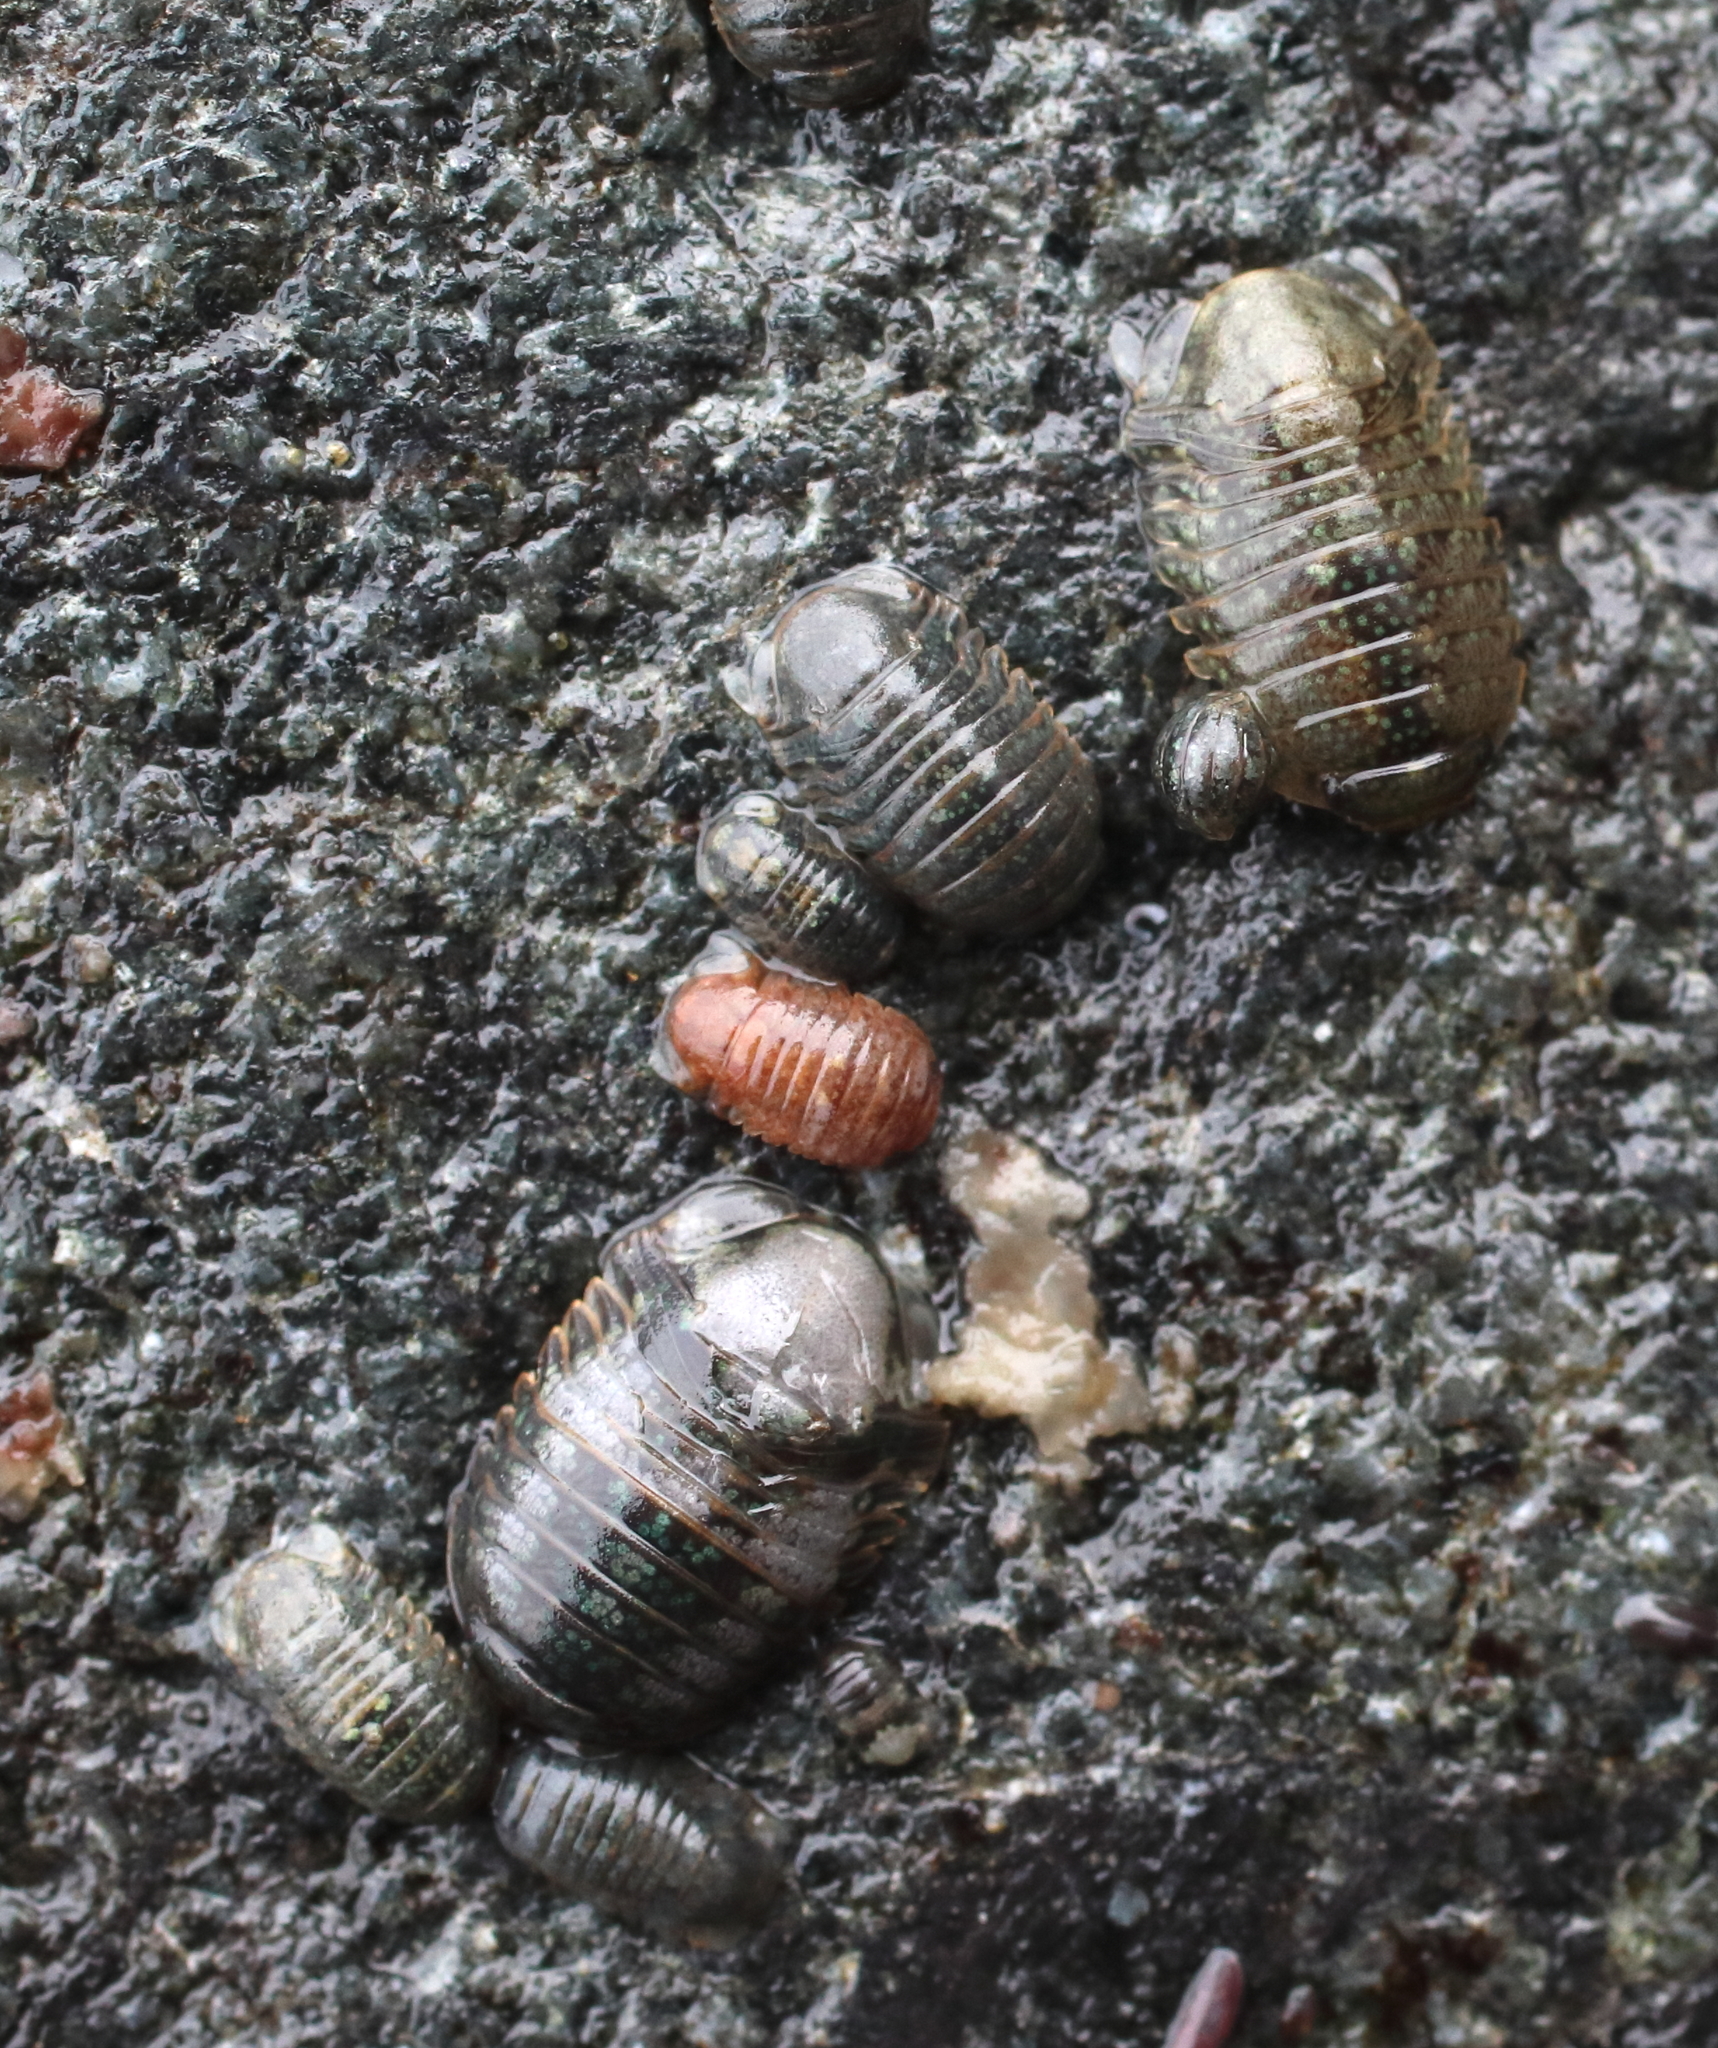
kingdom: Animalia
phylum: Arthropoda
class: Malacostraca
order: Isopoda
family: Sphaeromatidae
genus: Gnorimosphaeroma
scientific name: Gnorimosphaeroma oregonense
